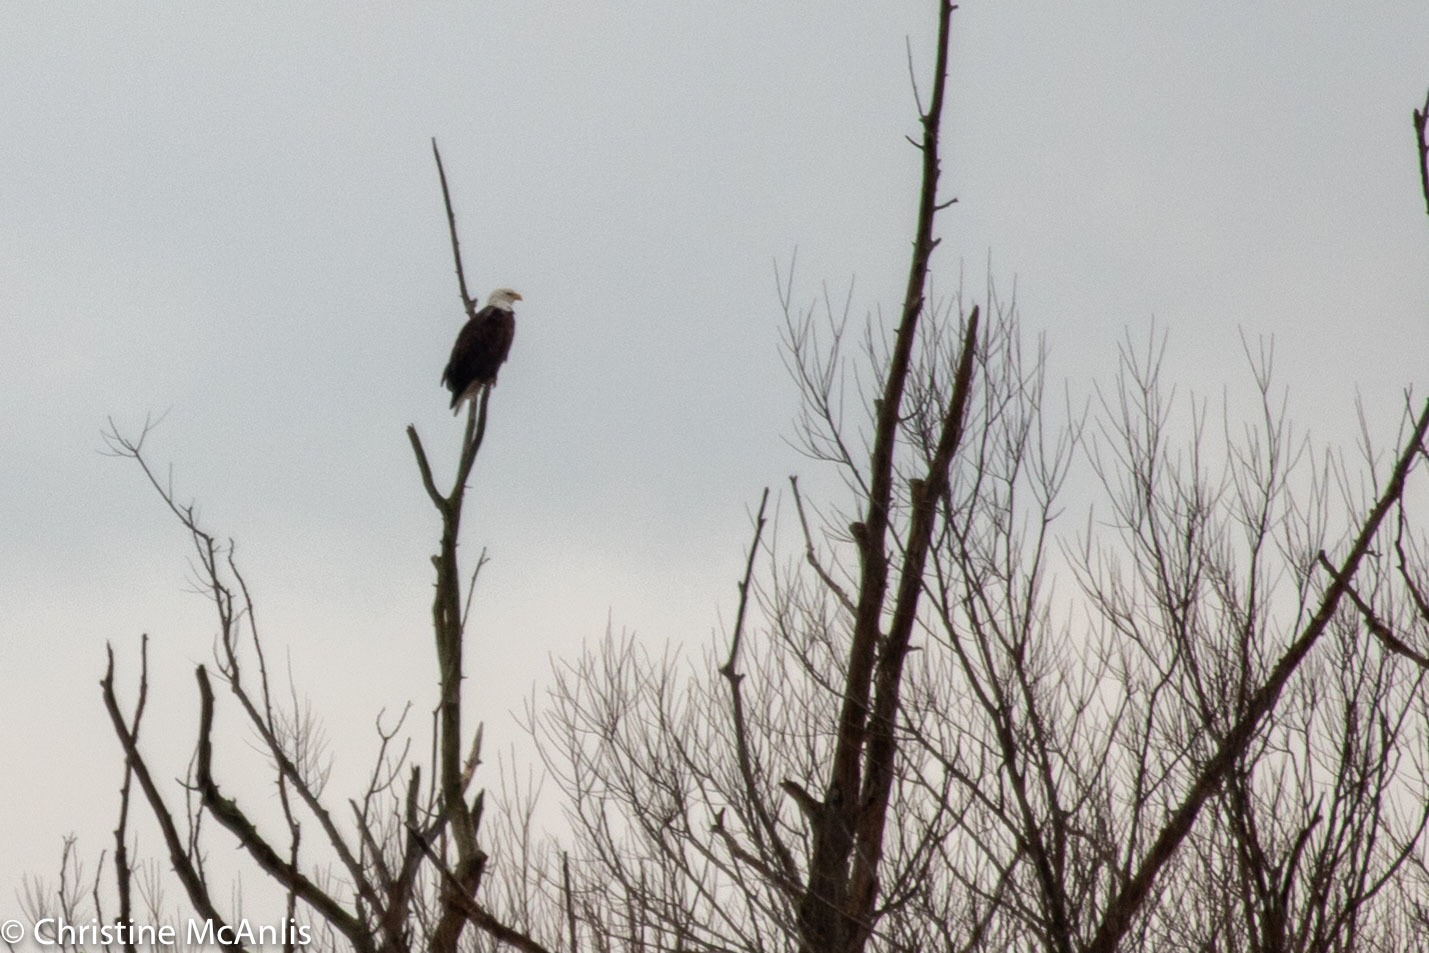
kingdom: Animalia
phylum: Chordata
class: Aves
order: Accipitriformes
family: Accipitridae
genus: Haliaeetus
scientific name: Haliaeetus leucocephalus
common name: Bald eagle
